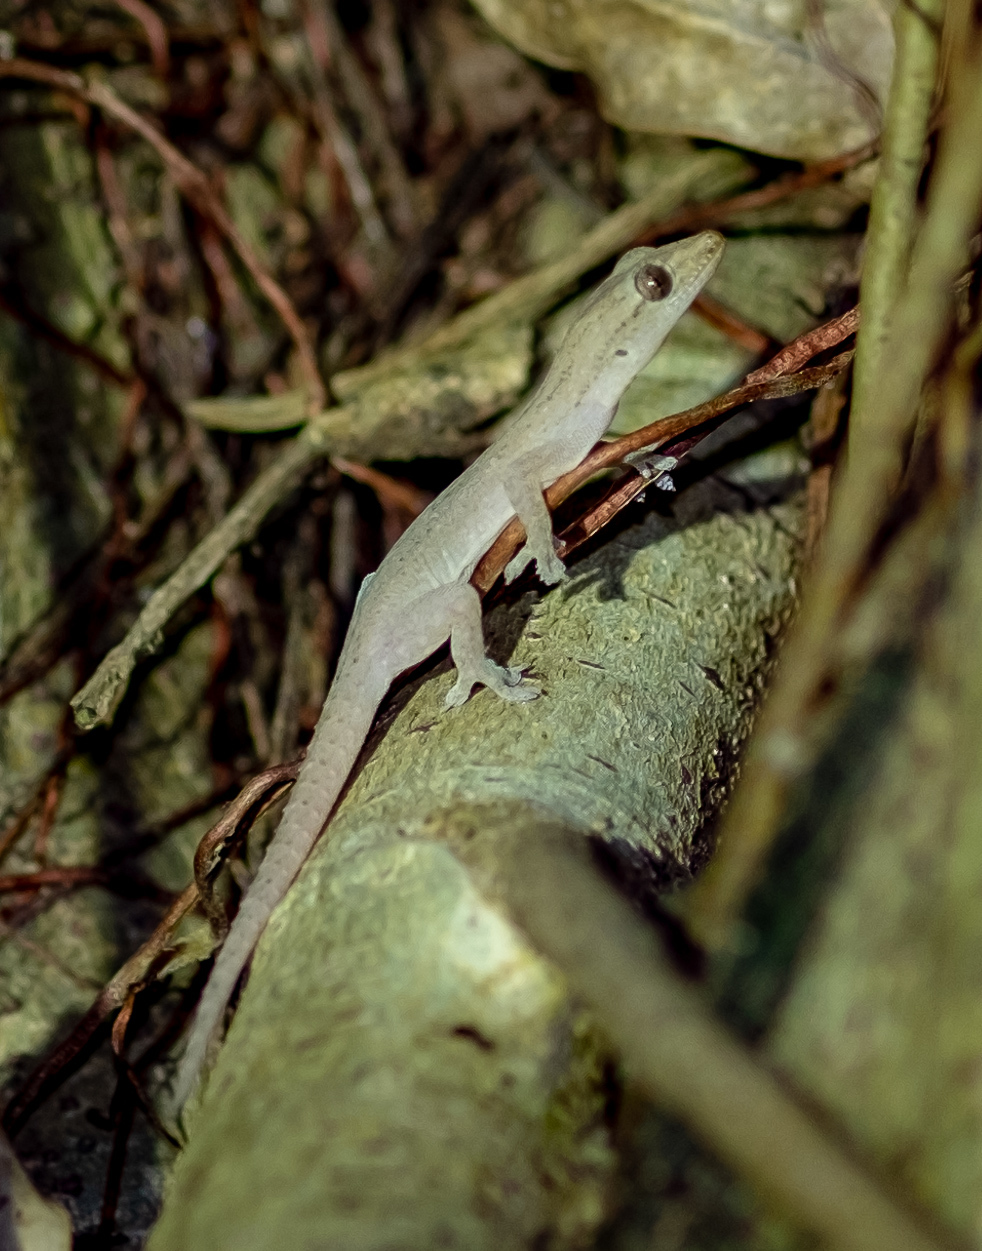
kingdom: Animalia
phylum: Chordata
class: Squamata
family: Gekkonidae
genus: Hemidactylus
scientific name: Hemidactylus frenatus
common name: Common house gecko
